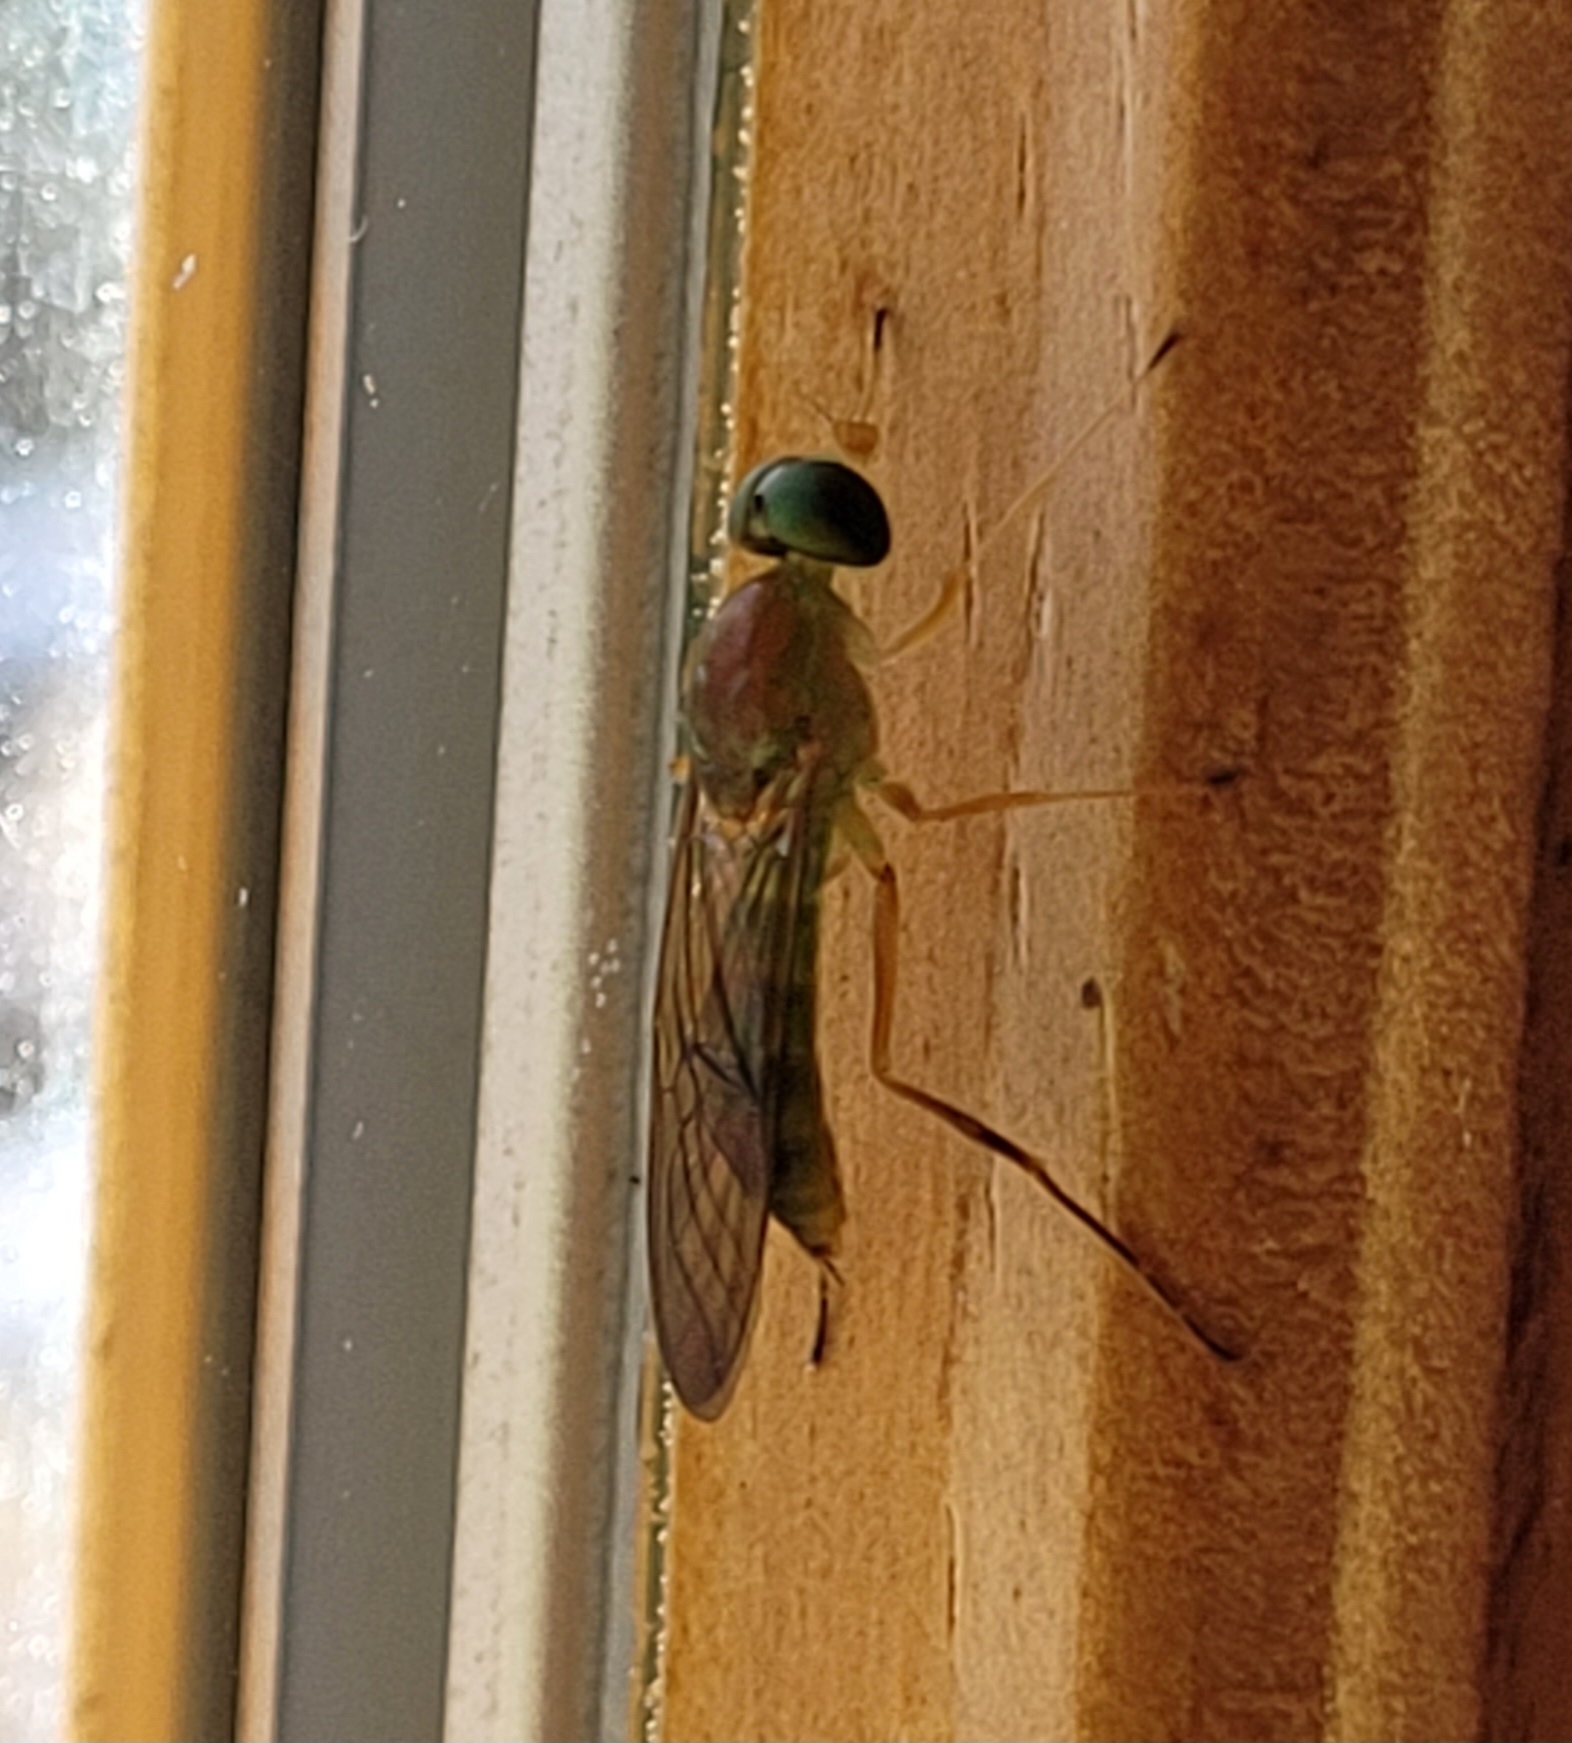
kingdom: Animalia
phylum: Arthropoda
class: Insecta
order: Diptera
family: Stratiomyidae
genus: Ptecticus
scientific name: Ptecticus trivittatus
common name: Compost fly
